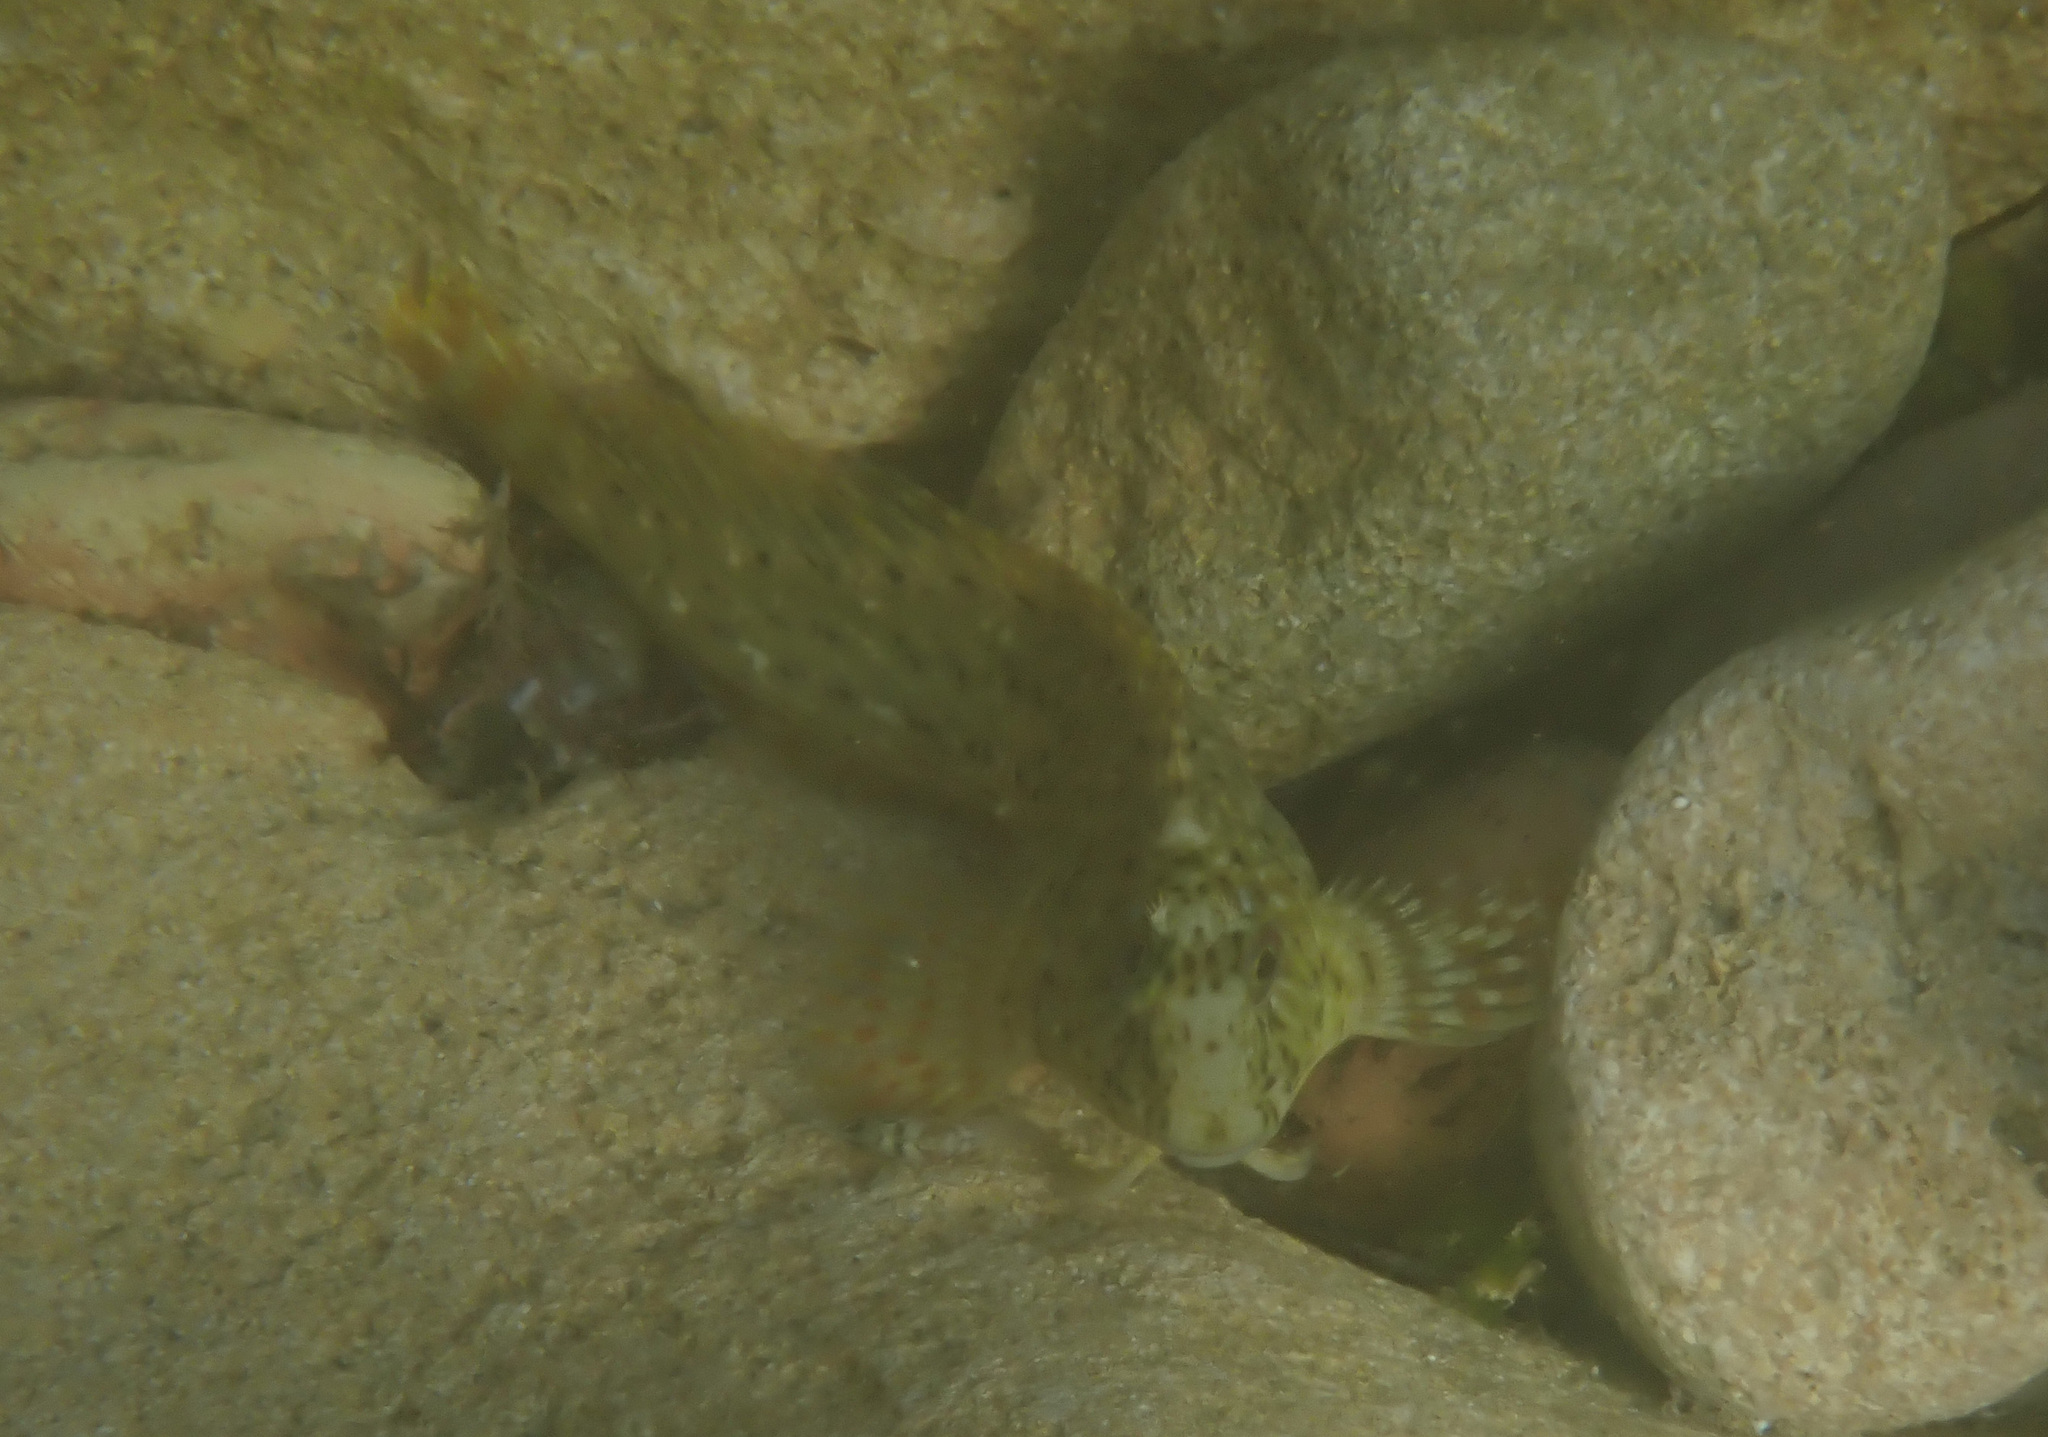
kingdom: Animalia
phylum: Chordata
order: Perciformes
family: Blenniidae
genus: Parablennius
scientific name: Parablennius sanguinolentus
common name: Black sea blenny
